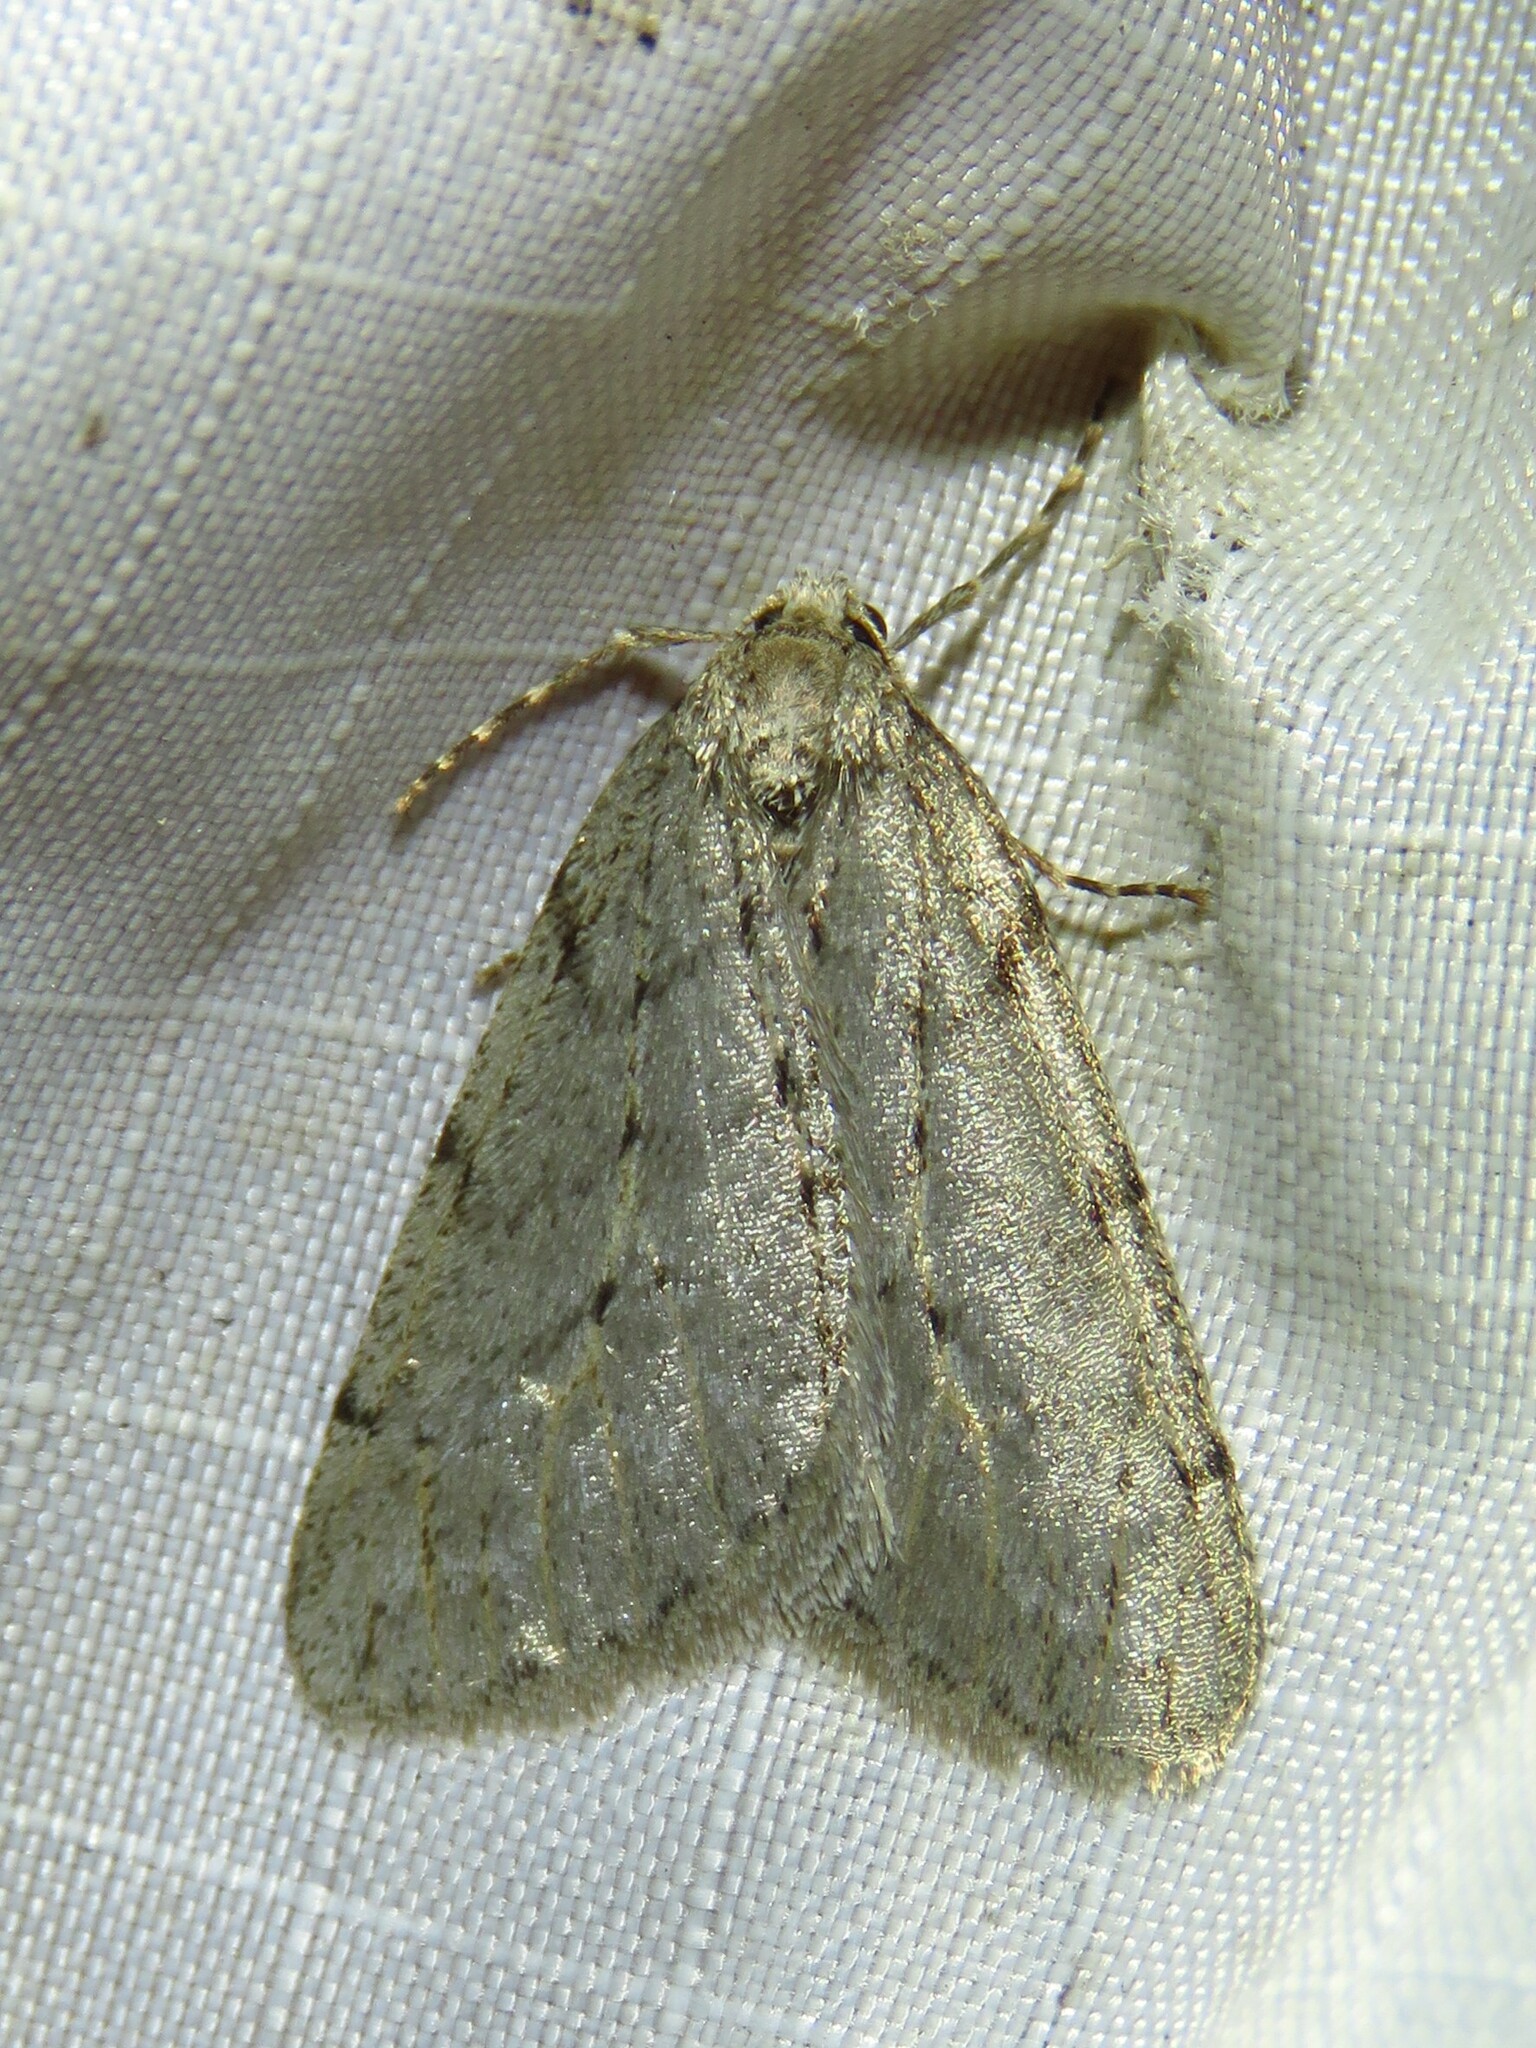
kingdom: Animalia
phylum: Arthropoda
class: Insecta
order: Lepidoptera
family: Geometridae
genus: Paleacrita
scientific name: Paleacrita vernata
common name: Spring cankerworm
